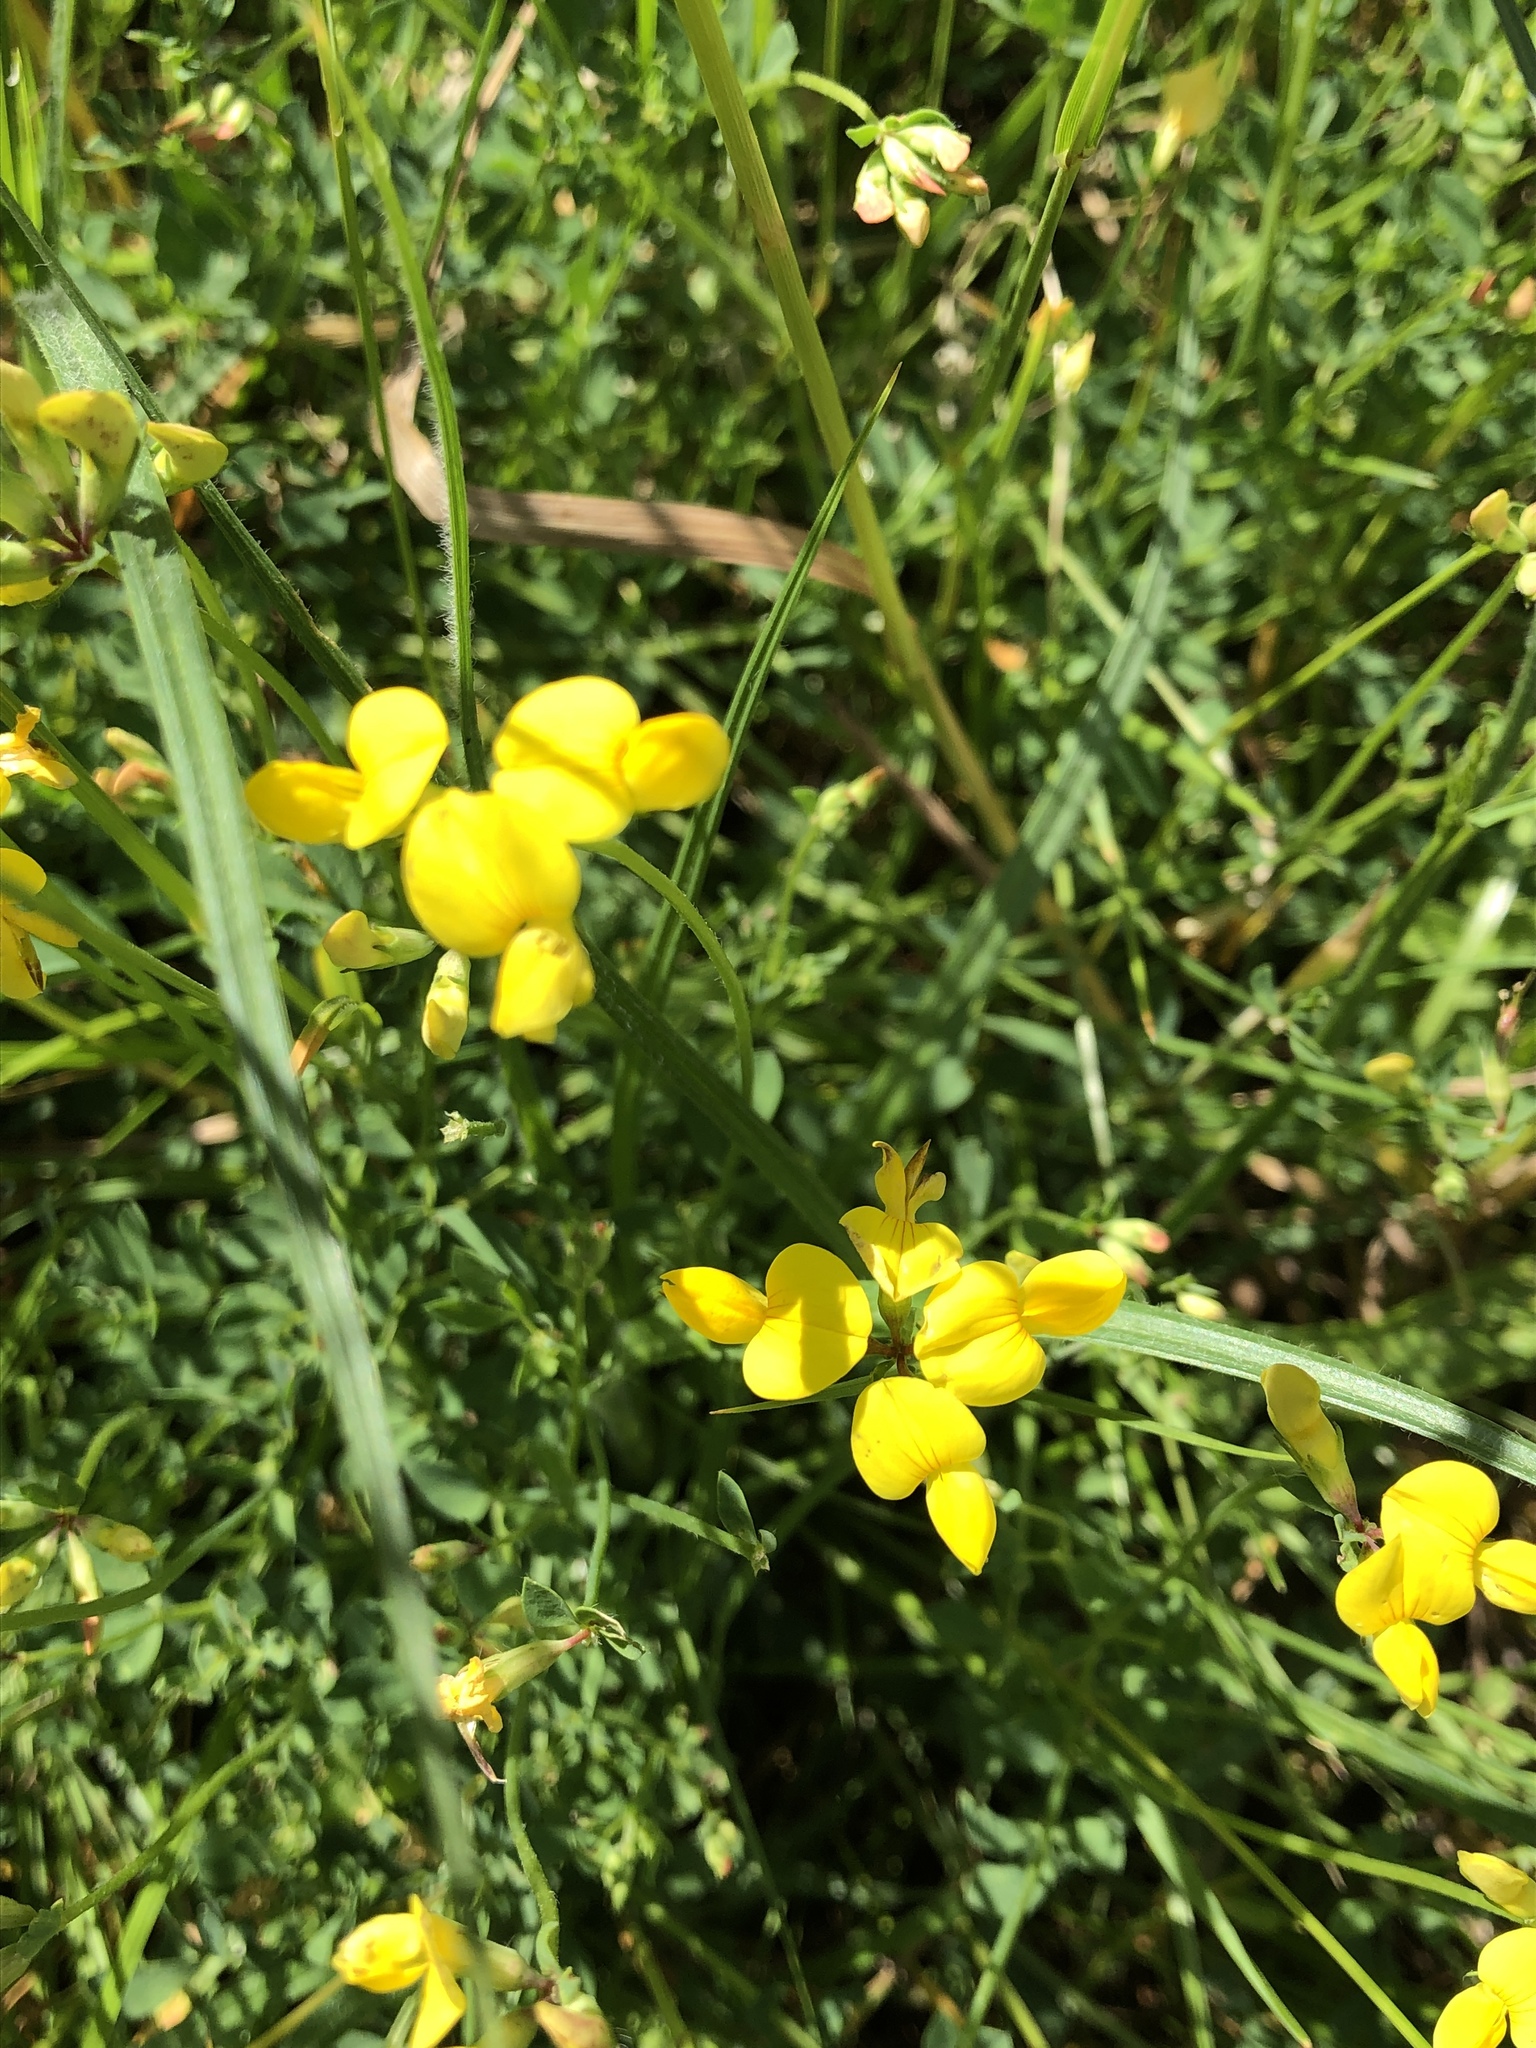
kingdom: Plantae
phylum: Tracheophyta
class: Magnoliopsida
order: Fabales
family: Fabaceae
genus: Lotus
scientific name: Lotus corniculatus
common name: Common bird's-foot-trefoil
